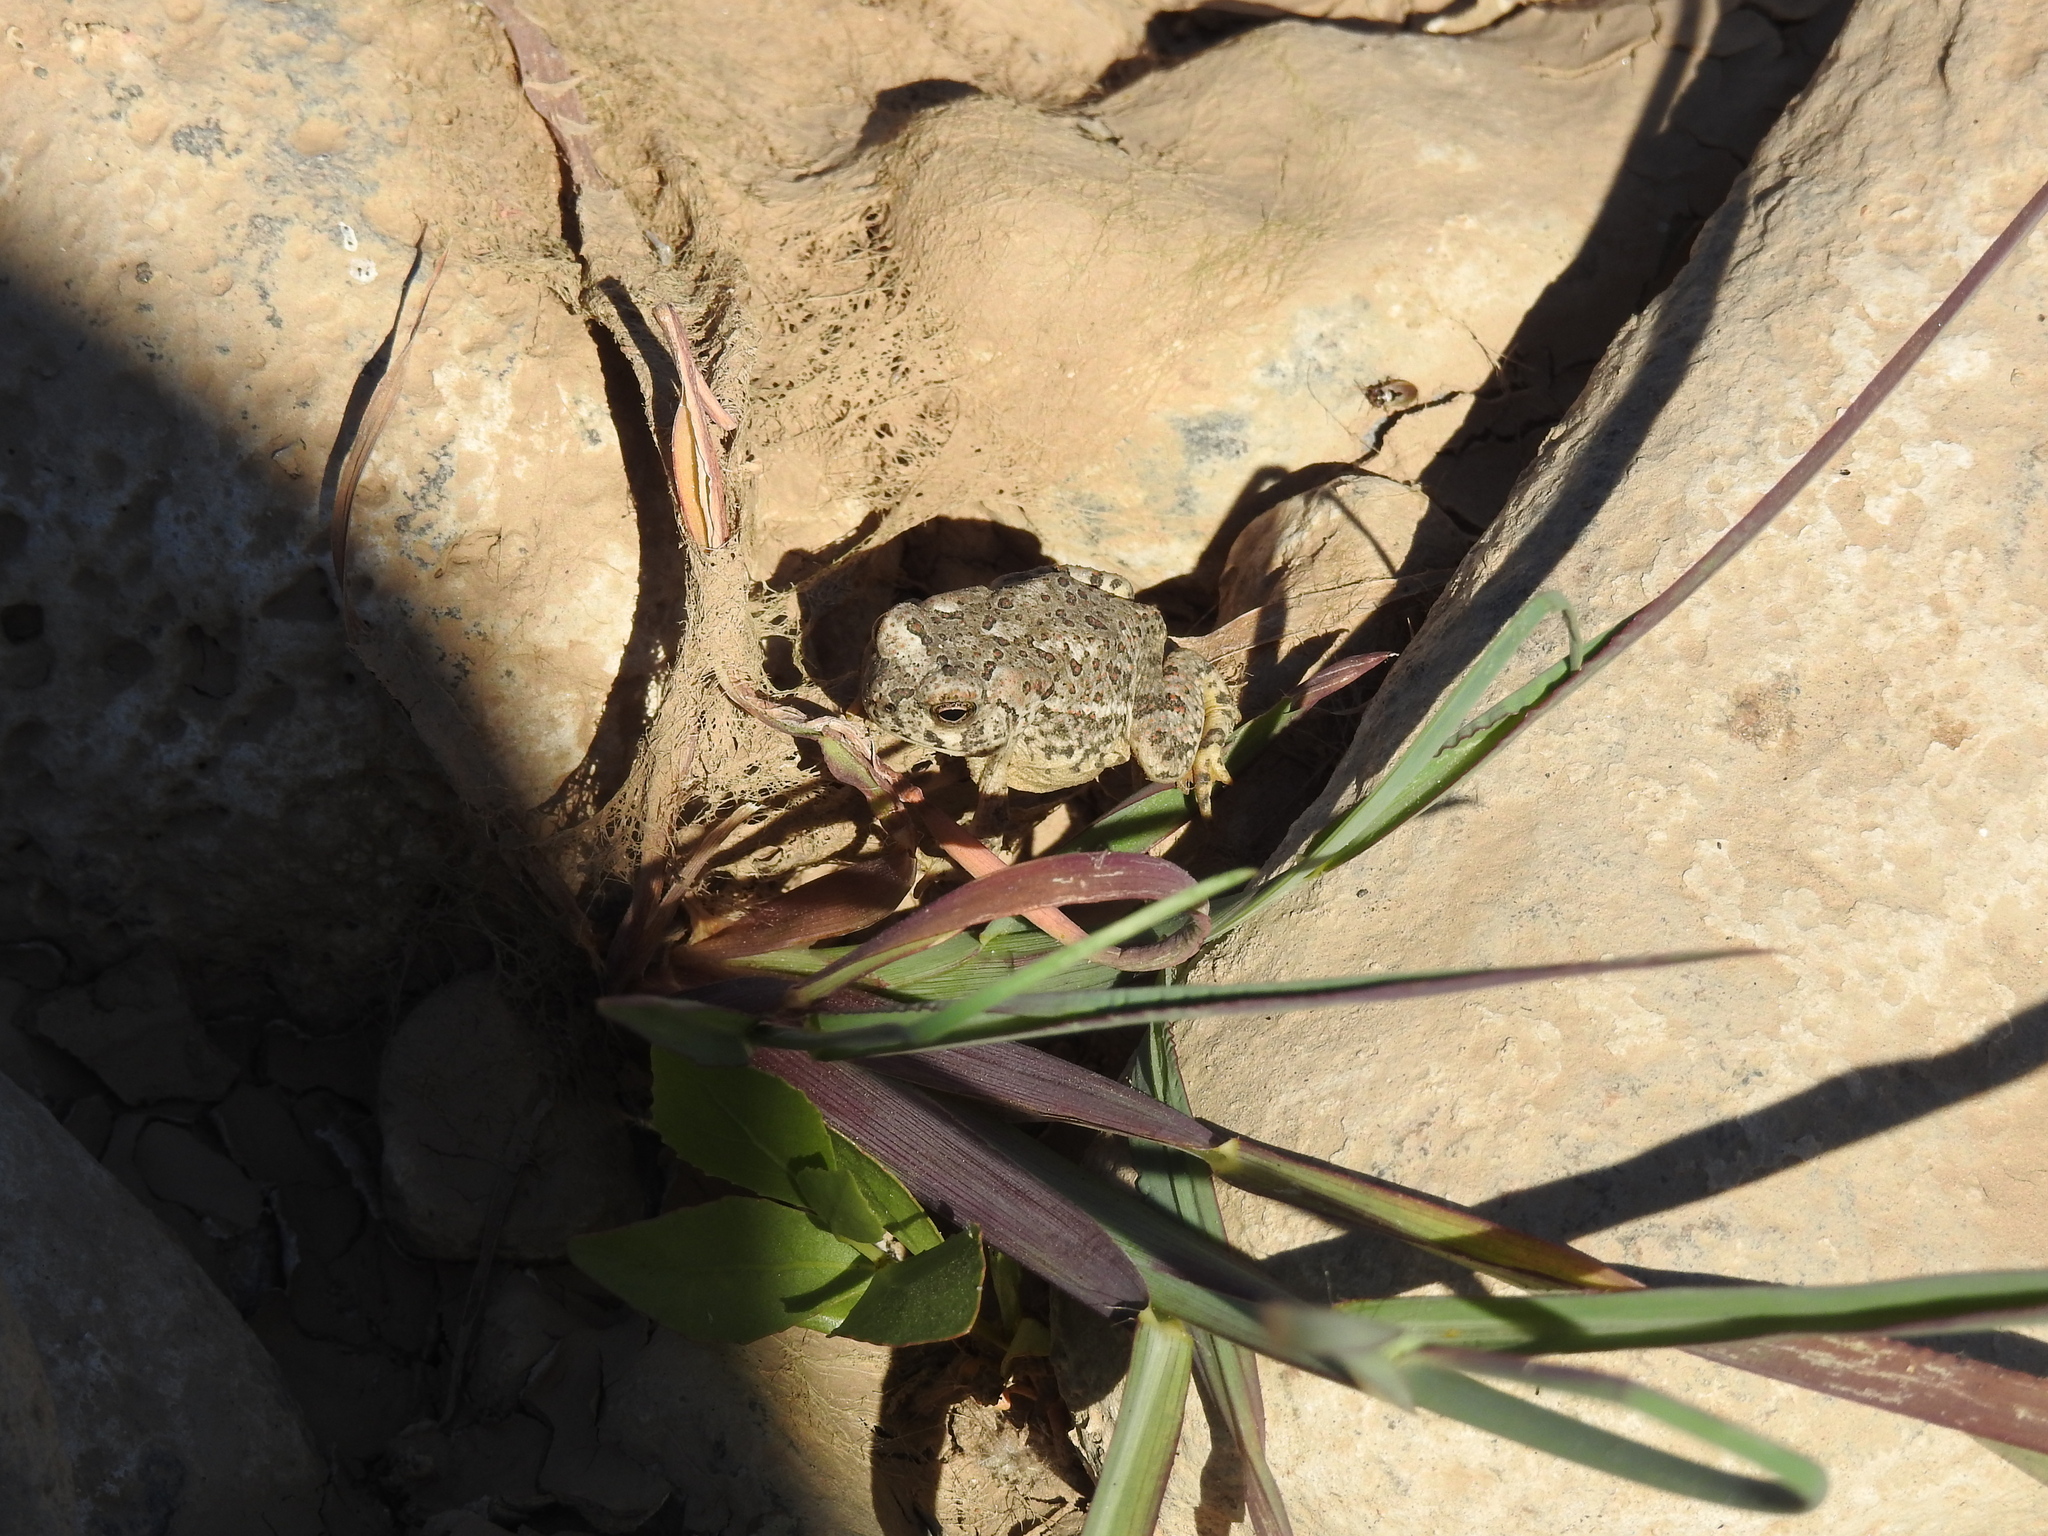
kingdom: Animalia
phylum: Chordata
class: Amphibia
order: Anura
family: Bufonidae
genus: Anaxyrus
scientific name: Anaxyrus microscaphus
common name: Arizona toad
